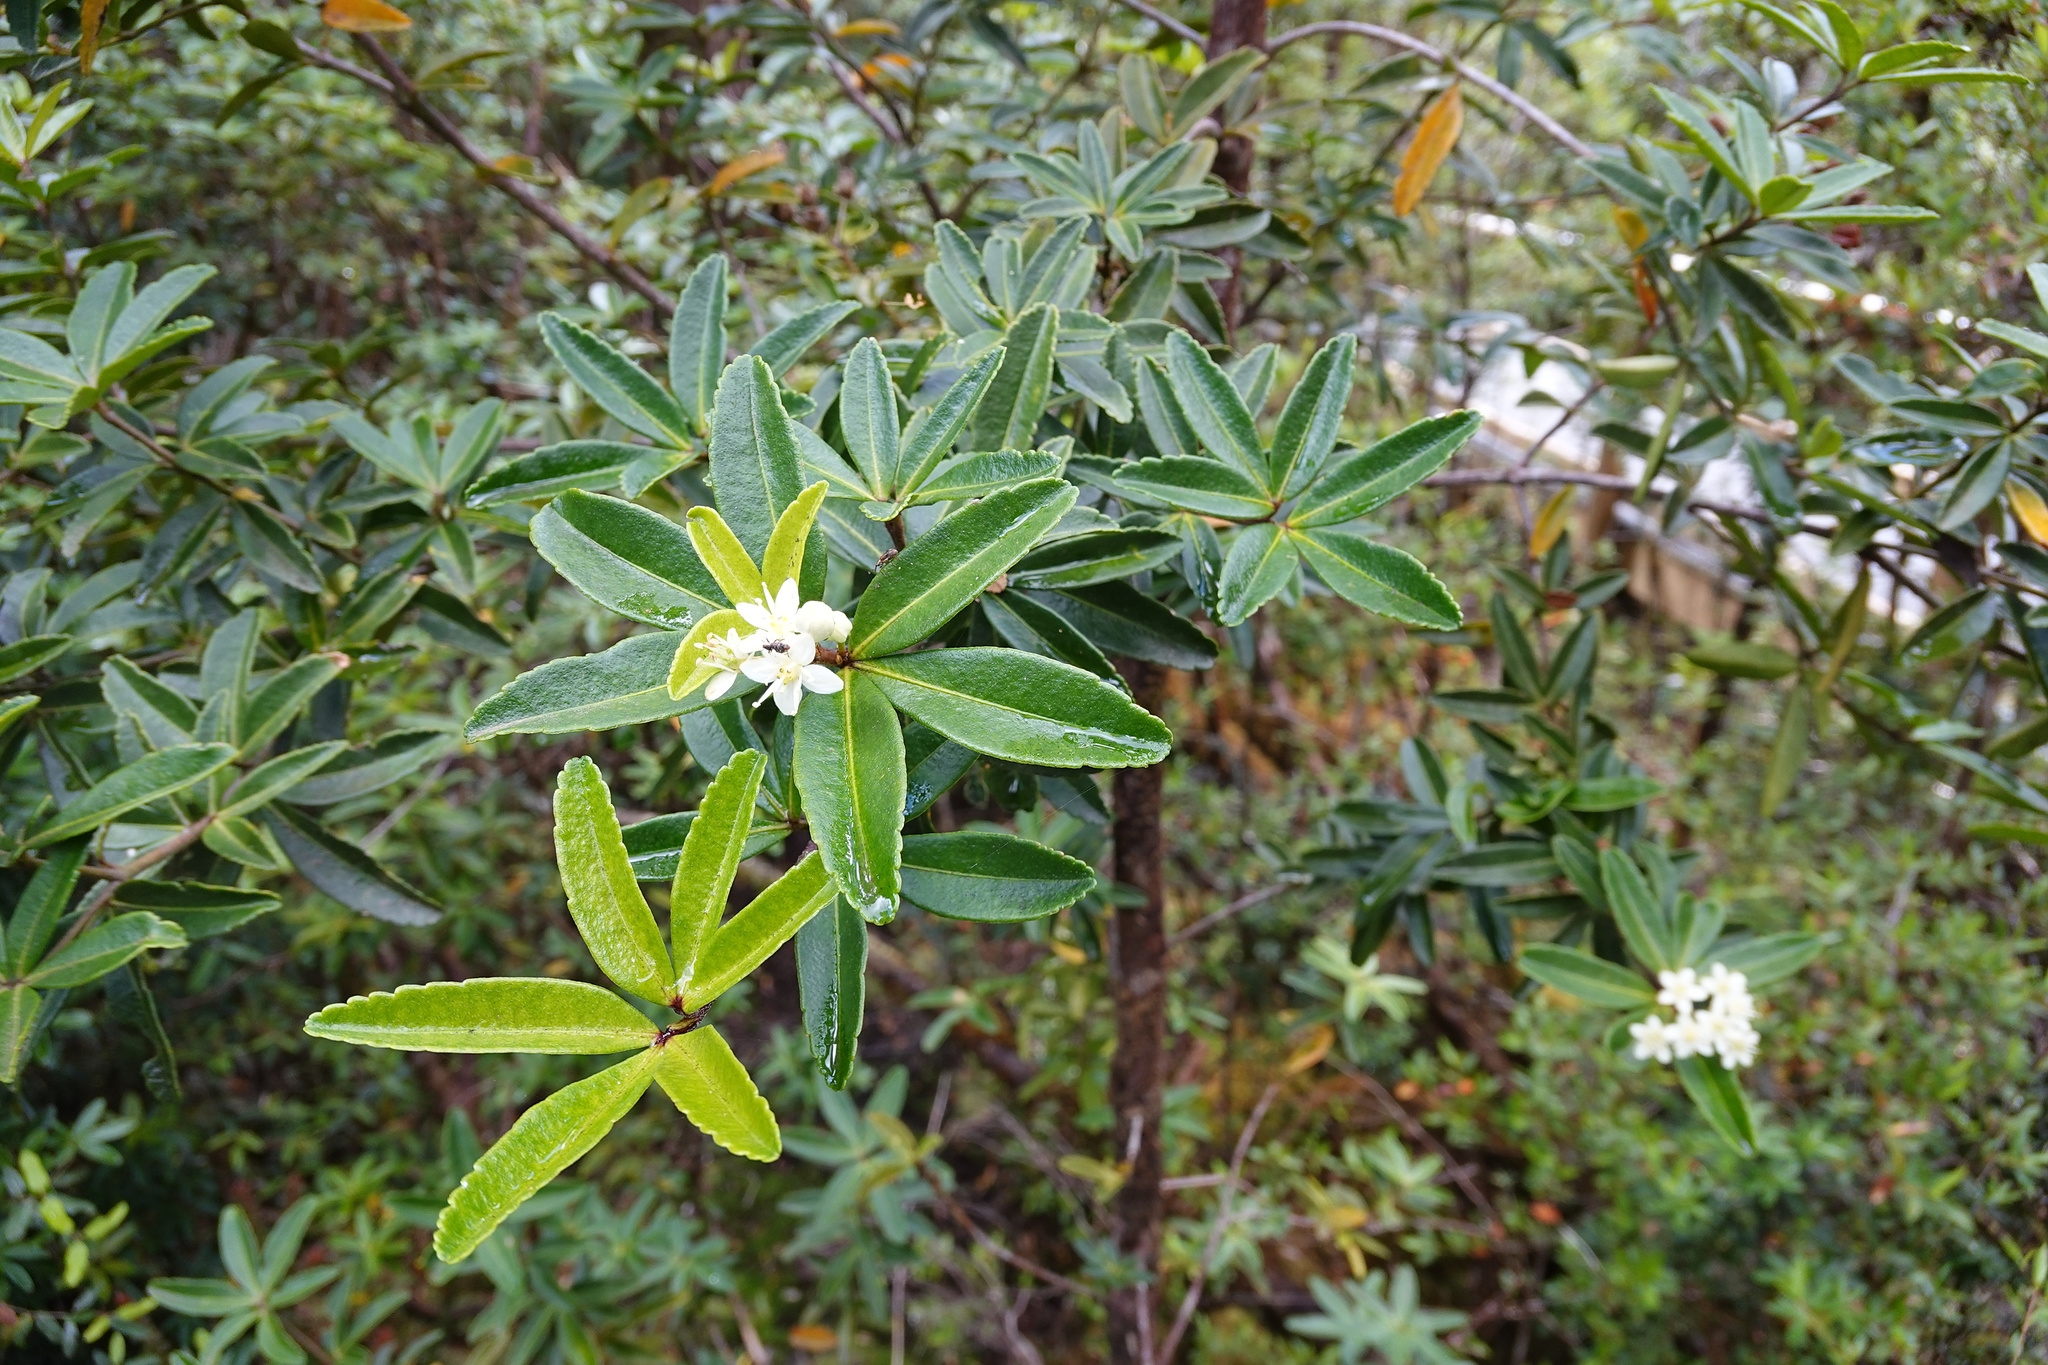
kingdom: Plantae
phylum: Tracheophyta
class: Magnoliopsida
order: Sapindales
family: Rutaceae
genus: Acradenia
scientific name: Acradenia frankliniae
